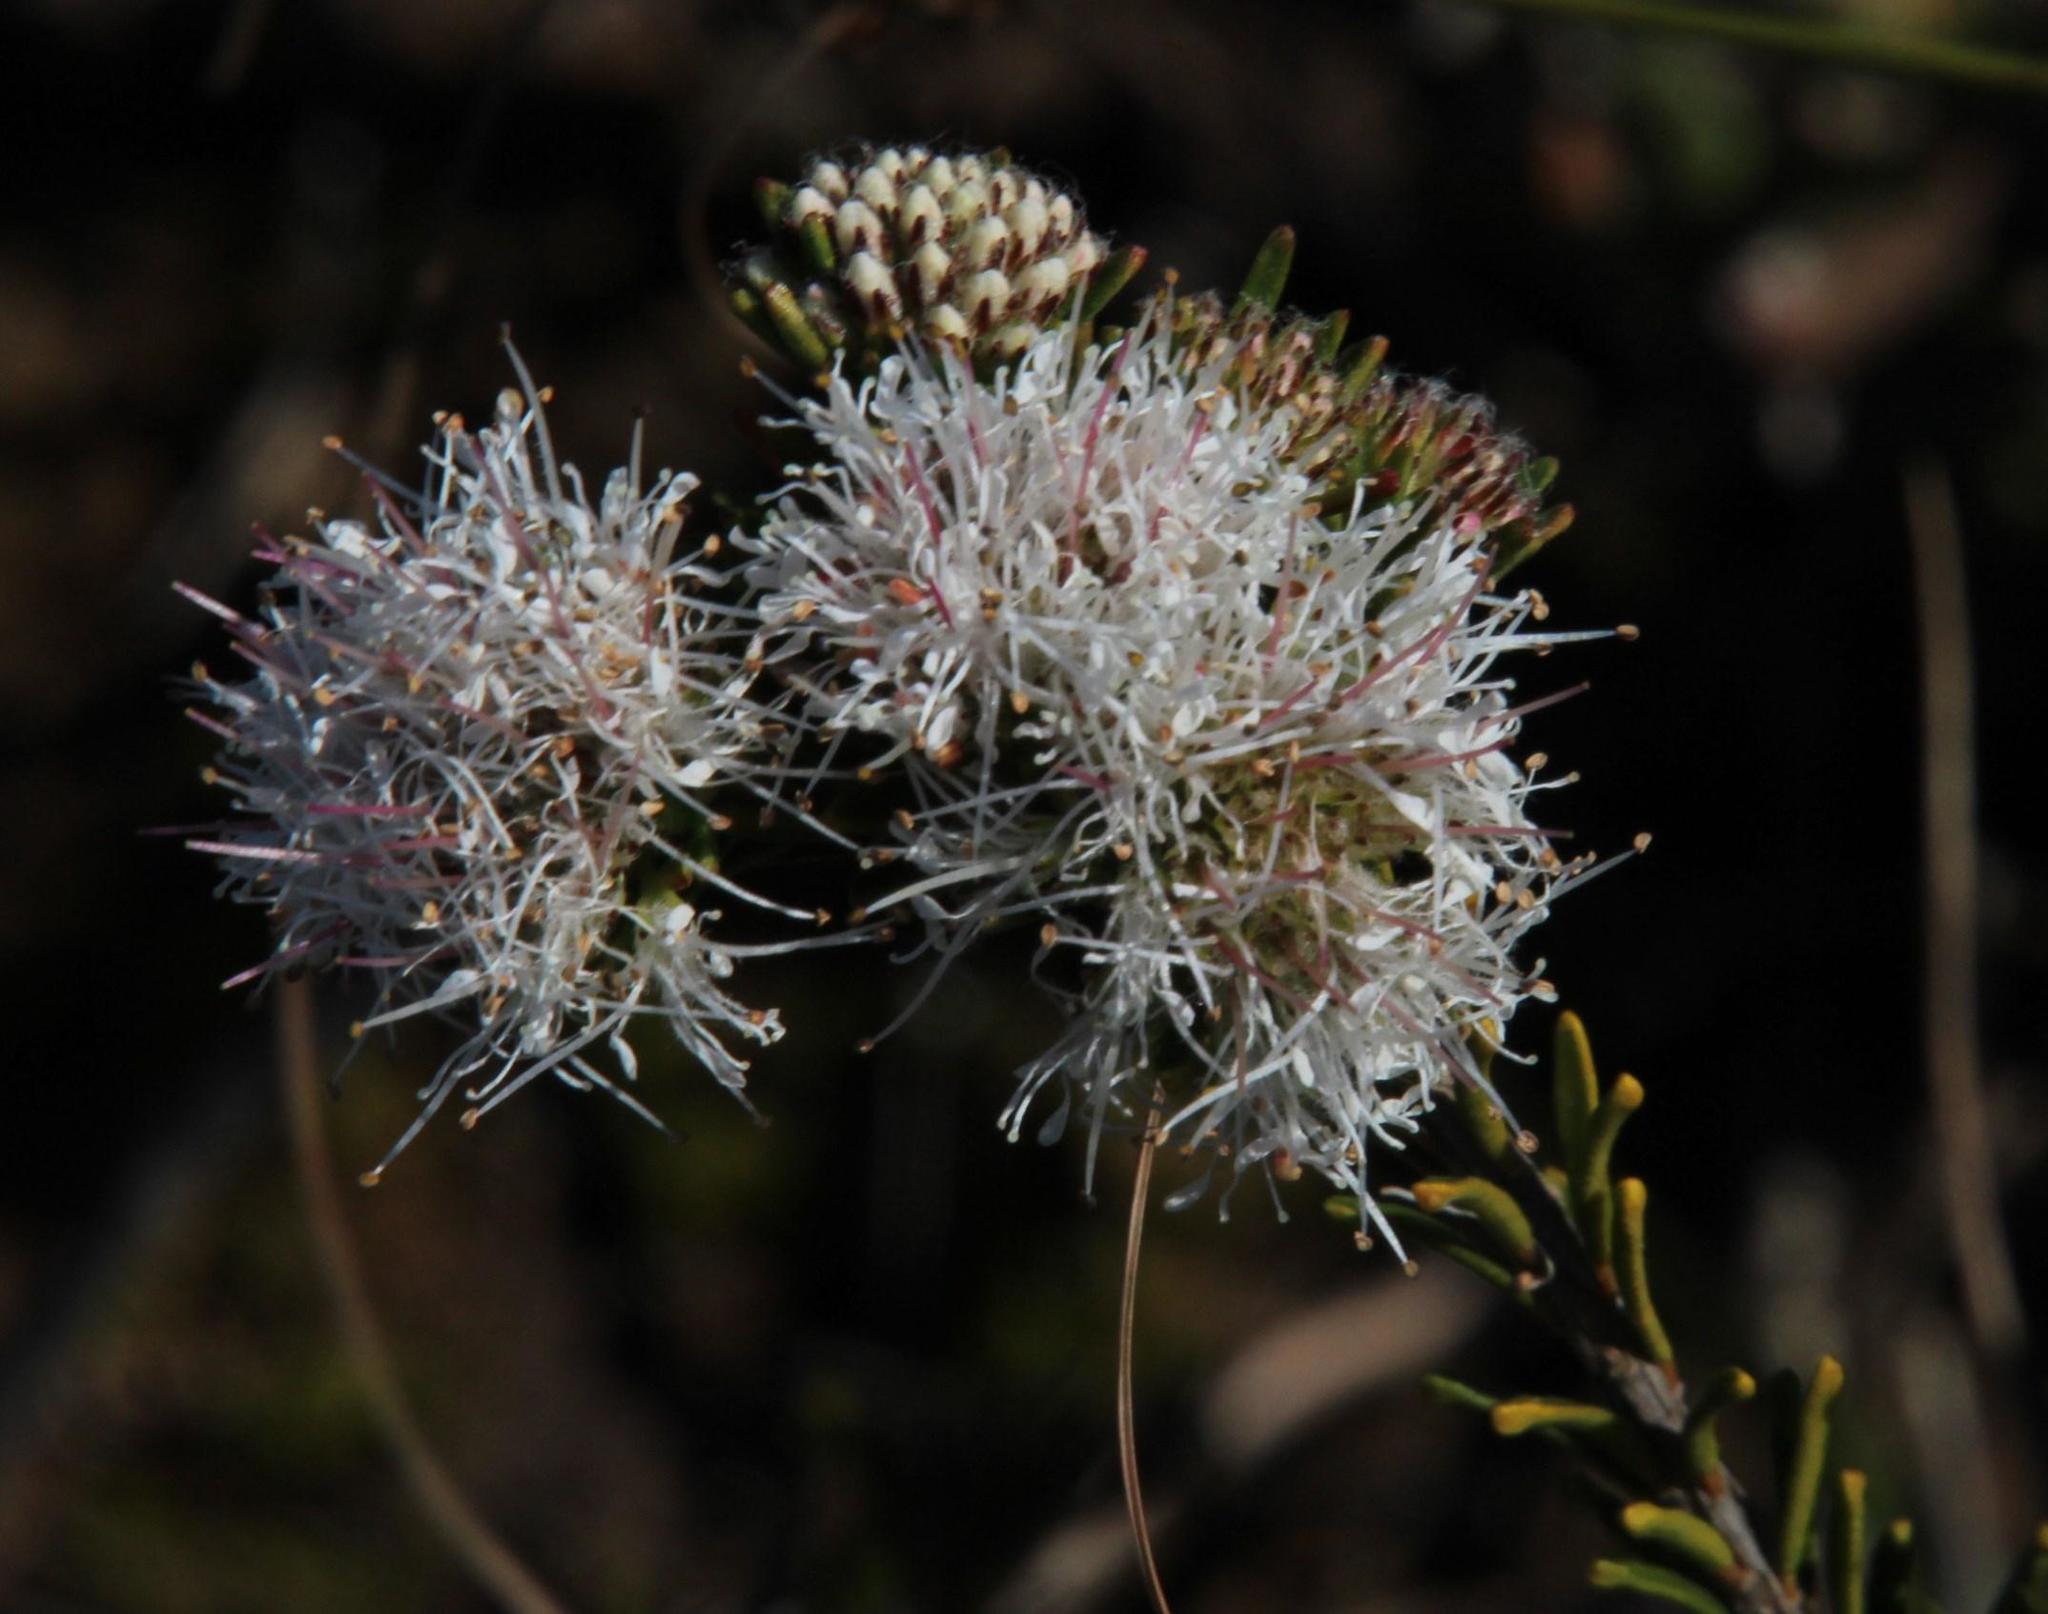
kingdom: Plantae
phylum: Tracheophyta
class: Magnoliopsida
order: Sapindales
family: Rutaceae
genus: Agathosma
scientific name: Agathosma gonaquensis
